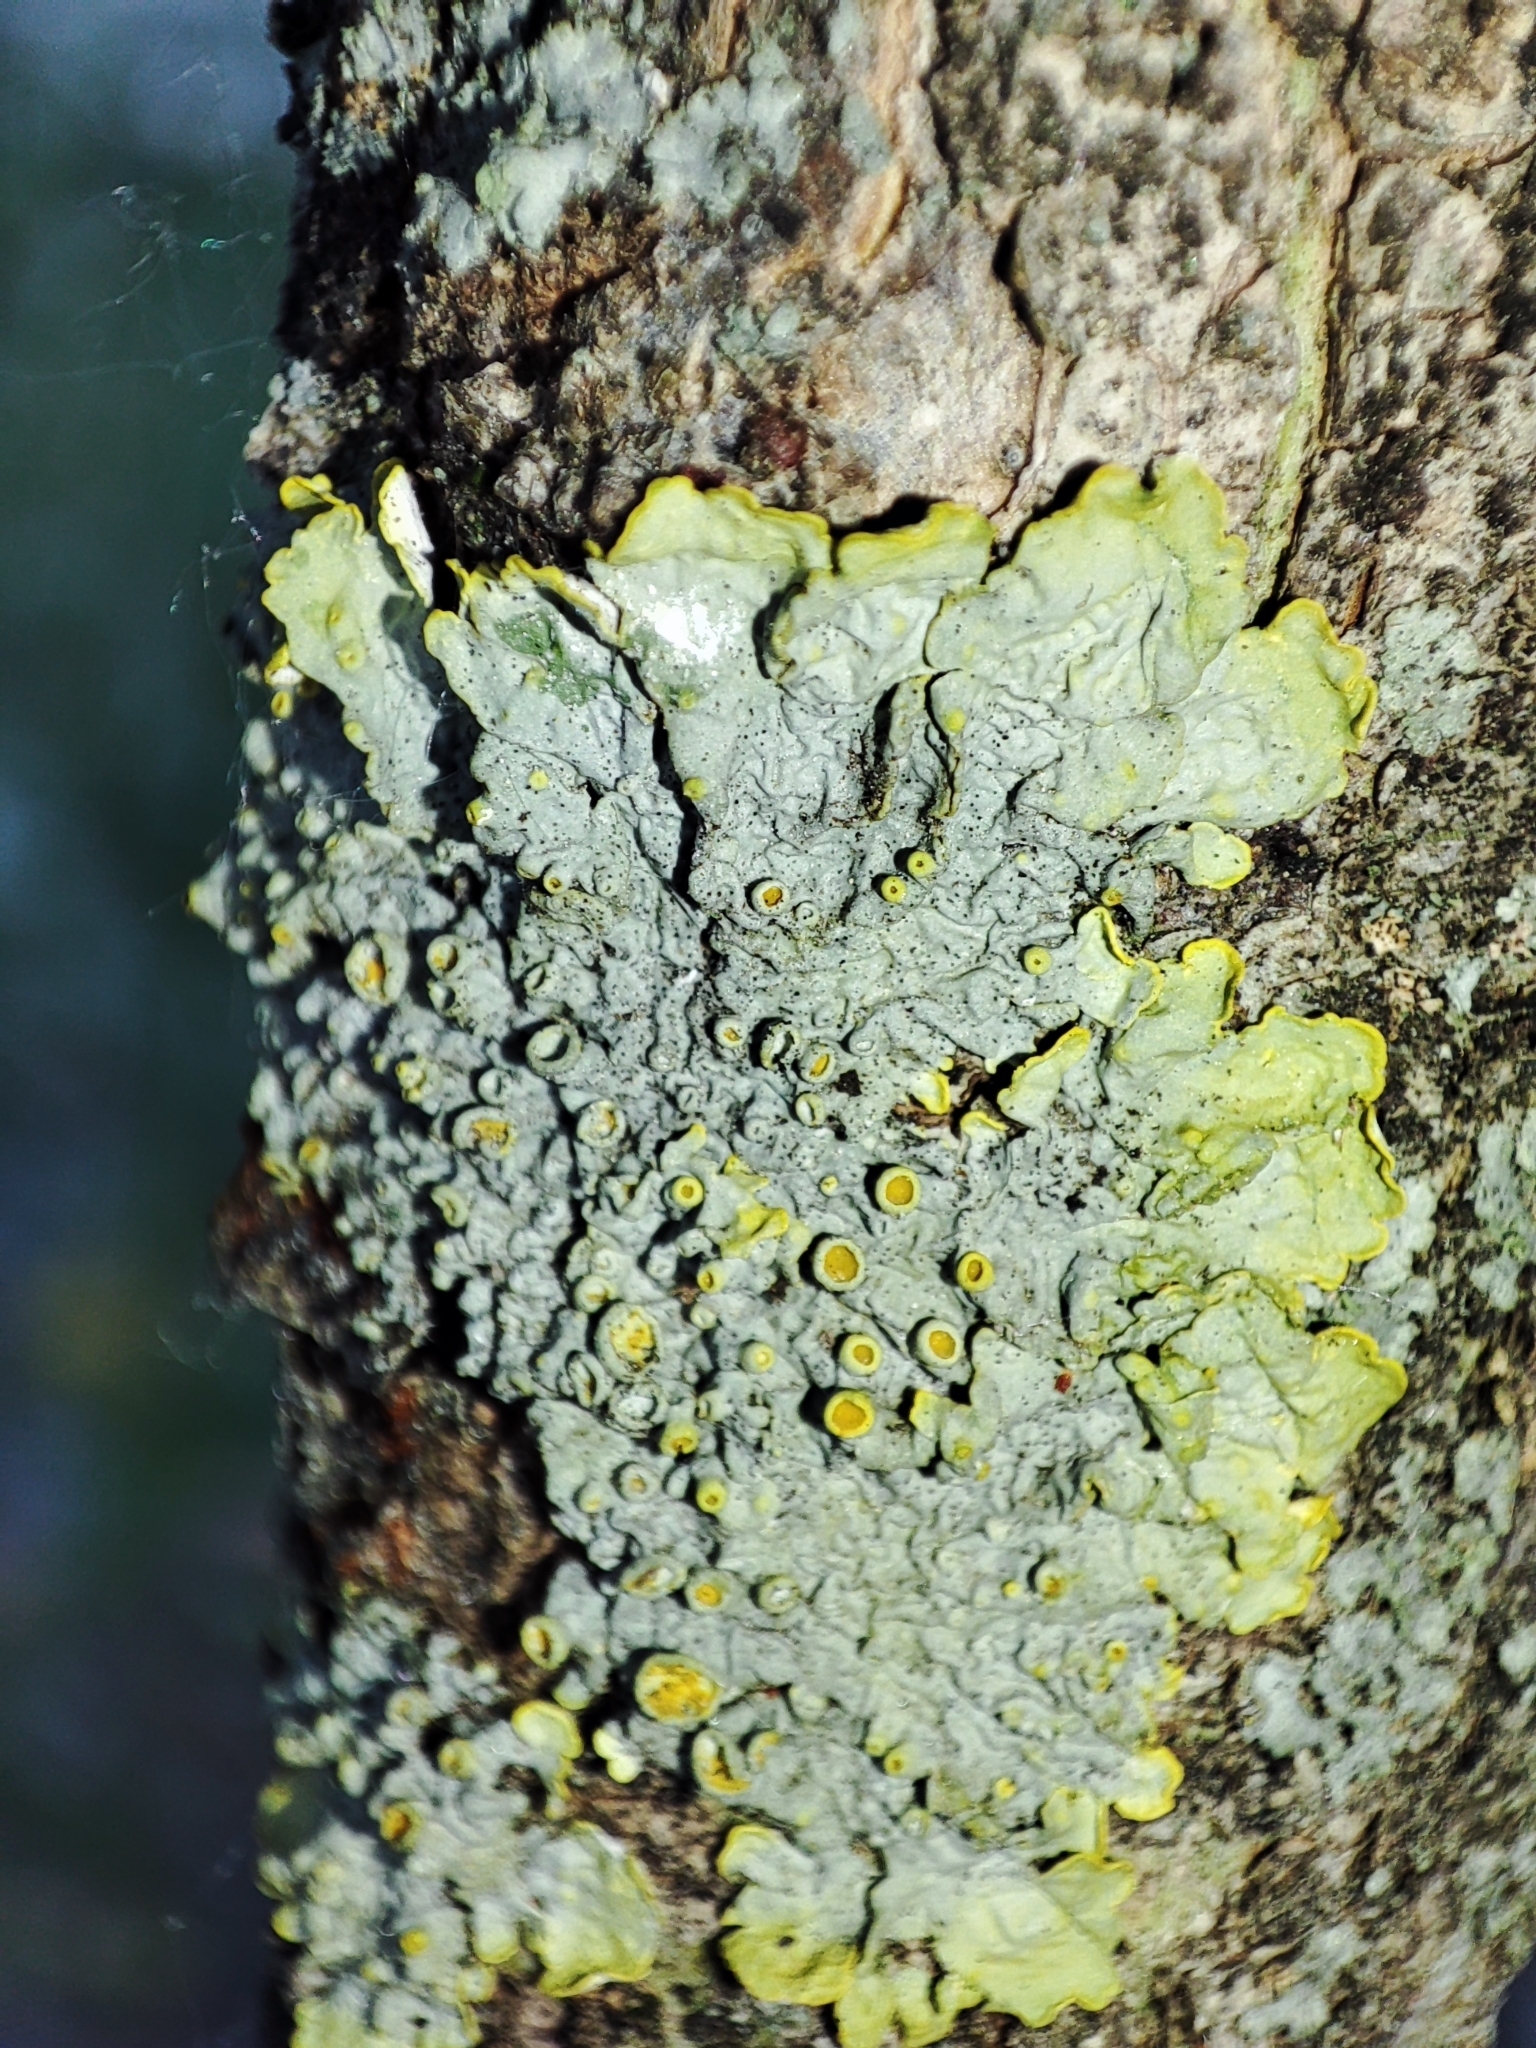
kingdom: Fungi
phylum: Ascomycota
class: Lecanoromycetes
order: Teloschistales
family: Teloschistaceae
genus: Xanthoria
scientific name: Xanthoria parietina
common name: Common orange lichen
